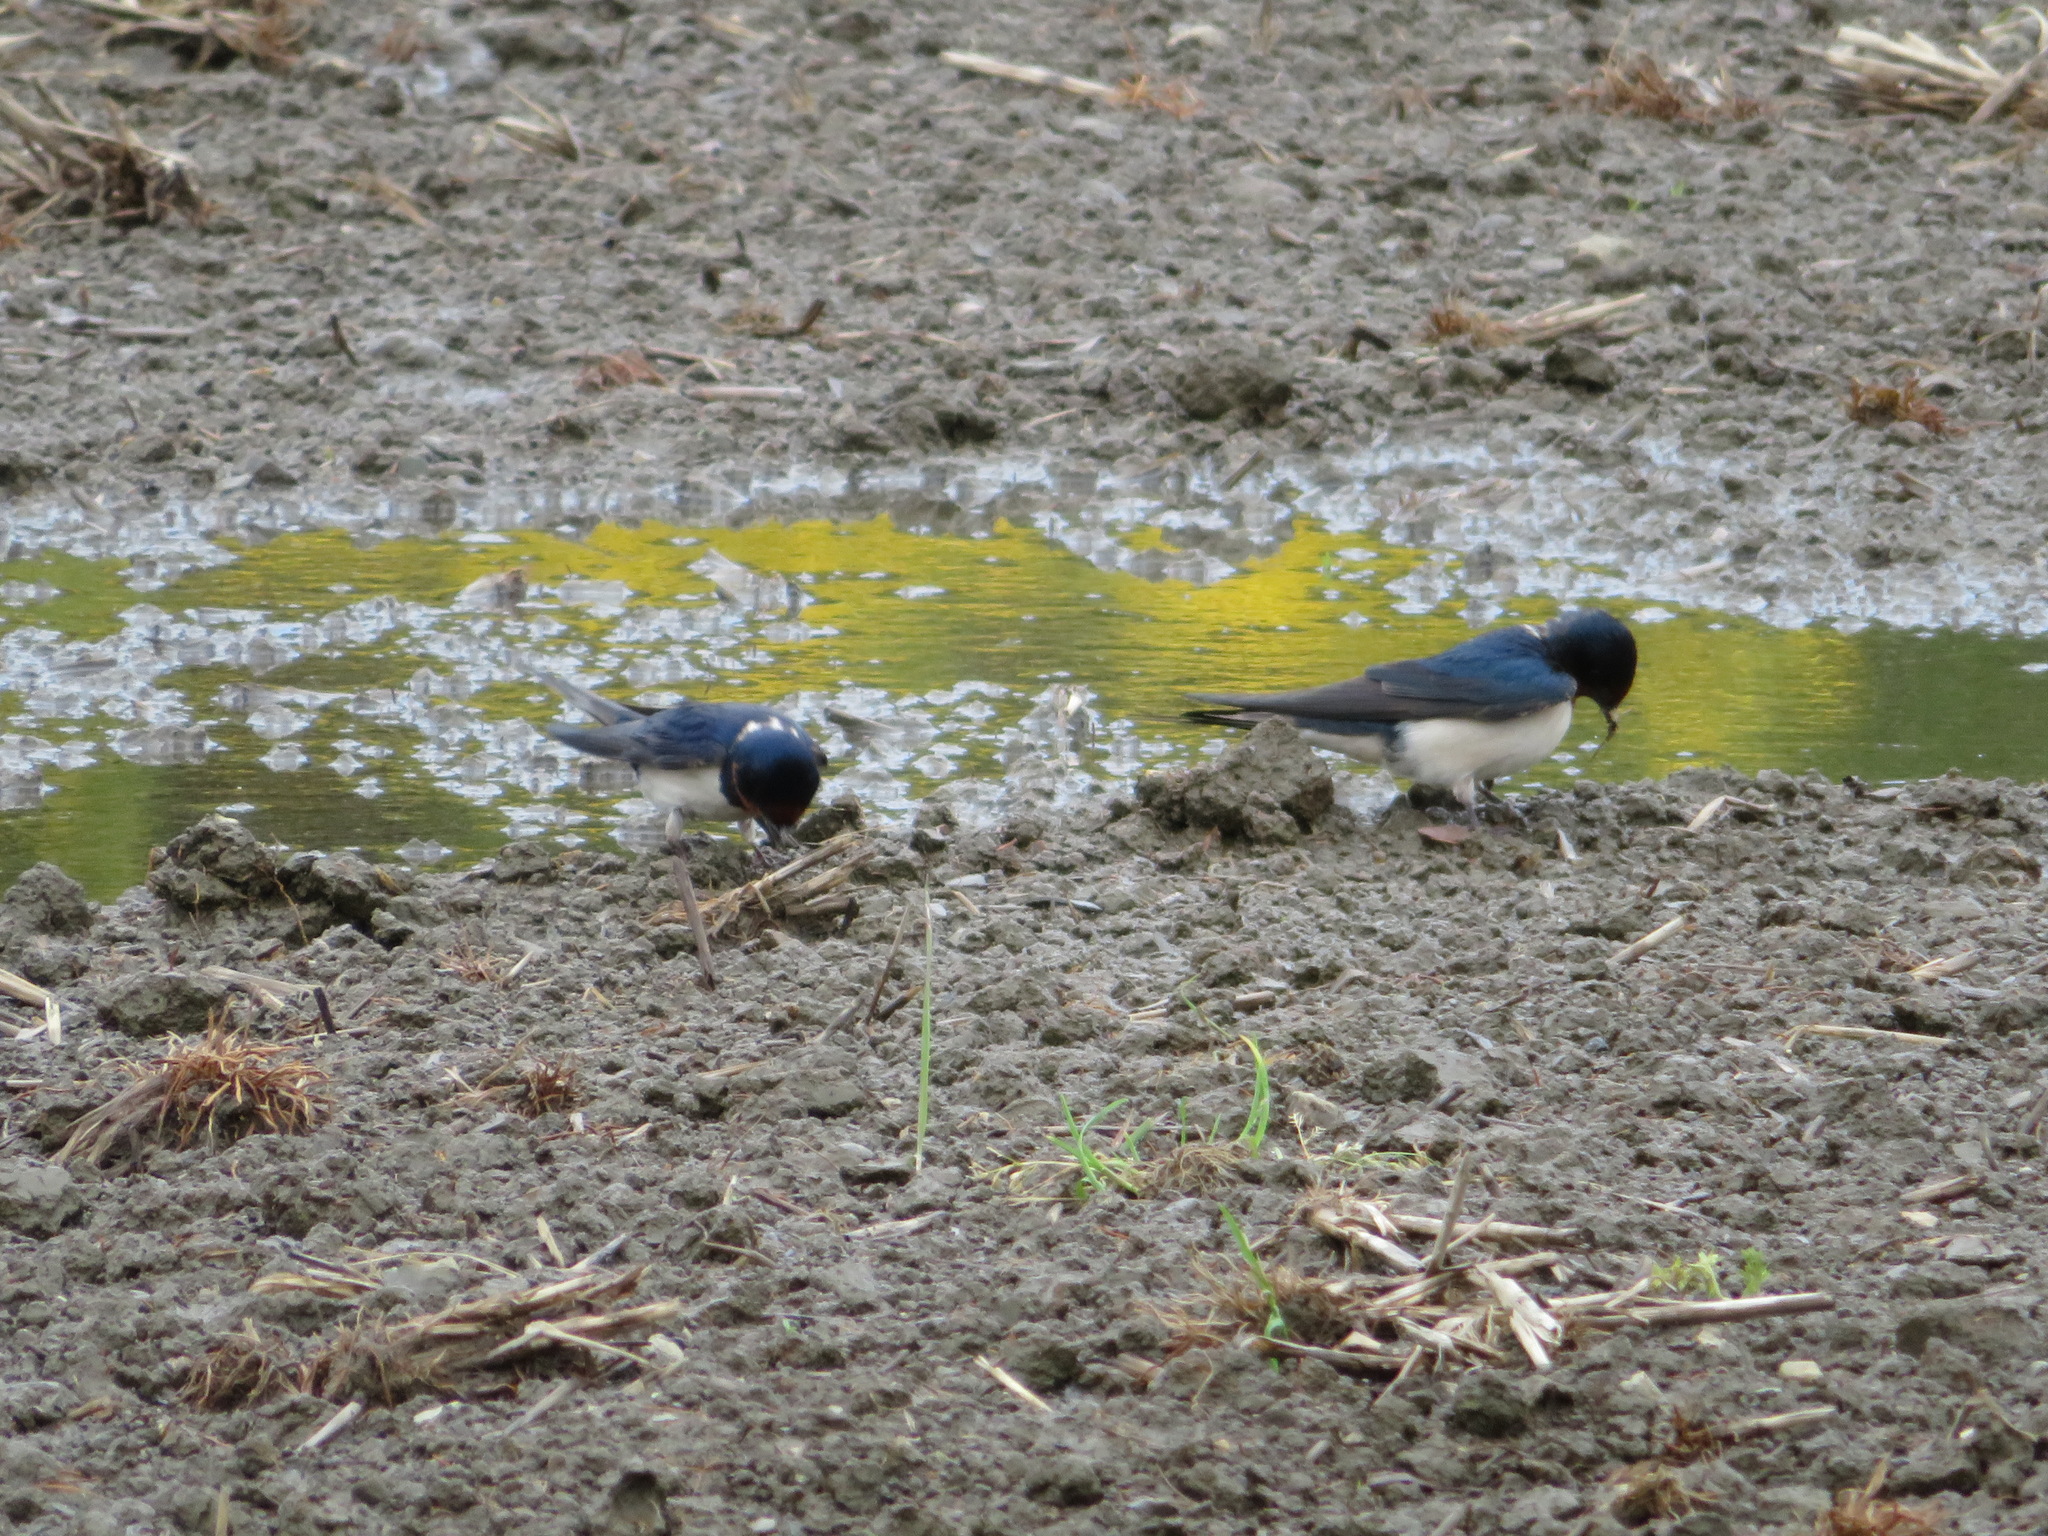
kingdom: Animalia
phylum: Chordata
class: Aves
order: Passeriformes
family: Hirundinidae
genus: Hirundo
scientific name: Hirundo rustica
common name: Barn swallow
